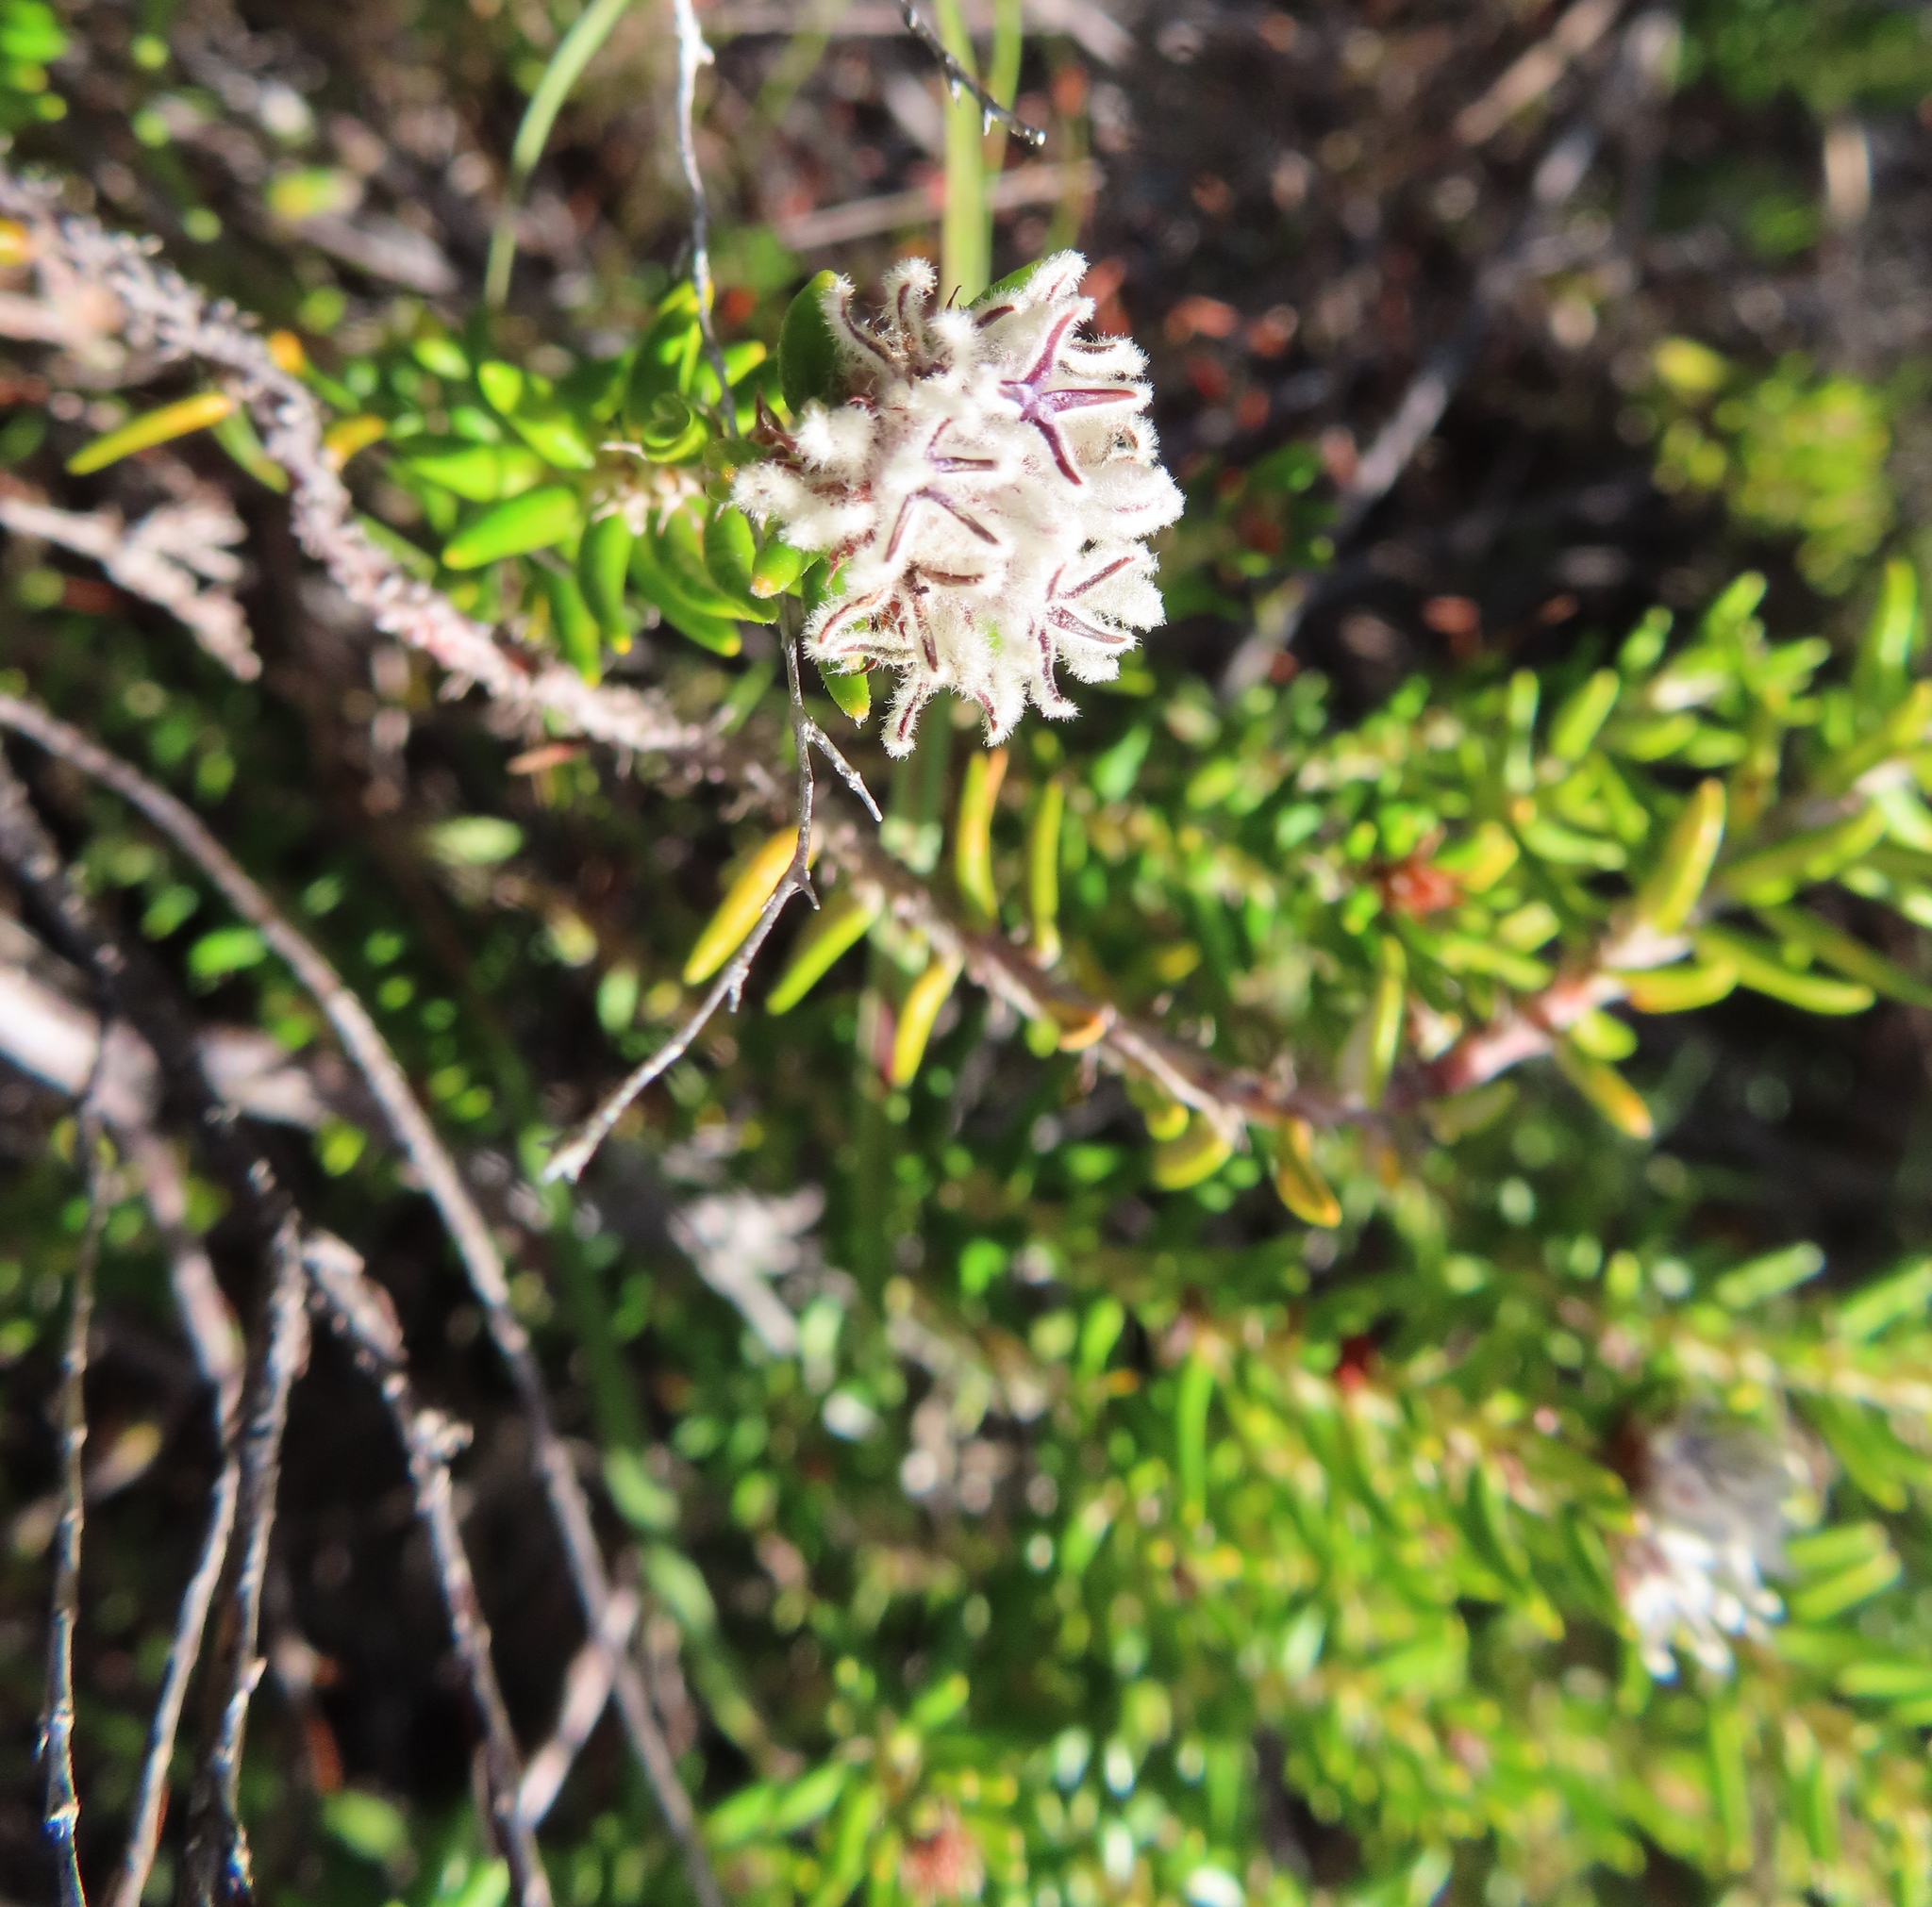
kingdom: Plantae
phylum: Tracheophyta
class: Magnoliopsida
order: Rosales
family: Rhamnaceae
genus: Trichocephalus
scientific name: Trichocephalus stipularis
